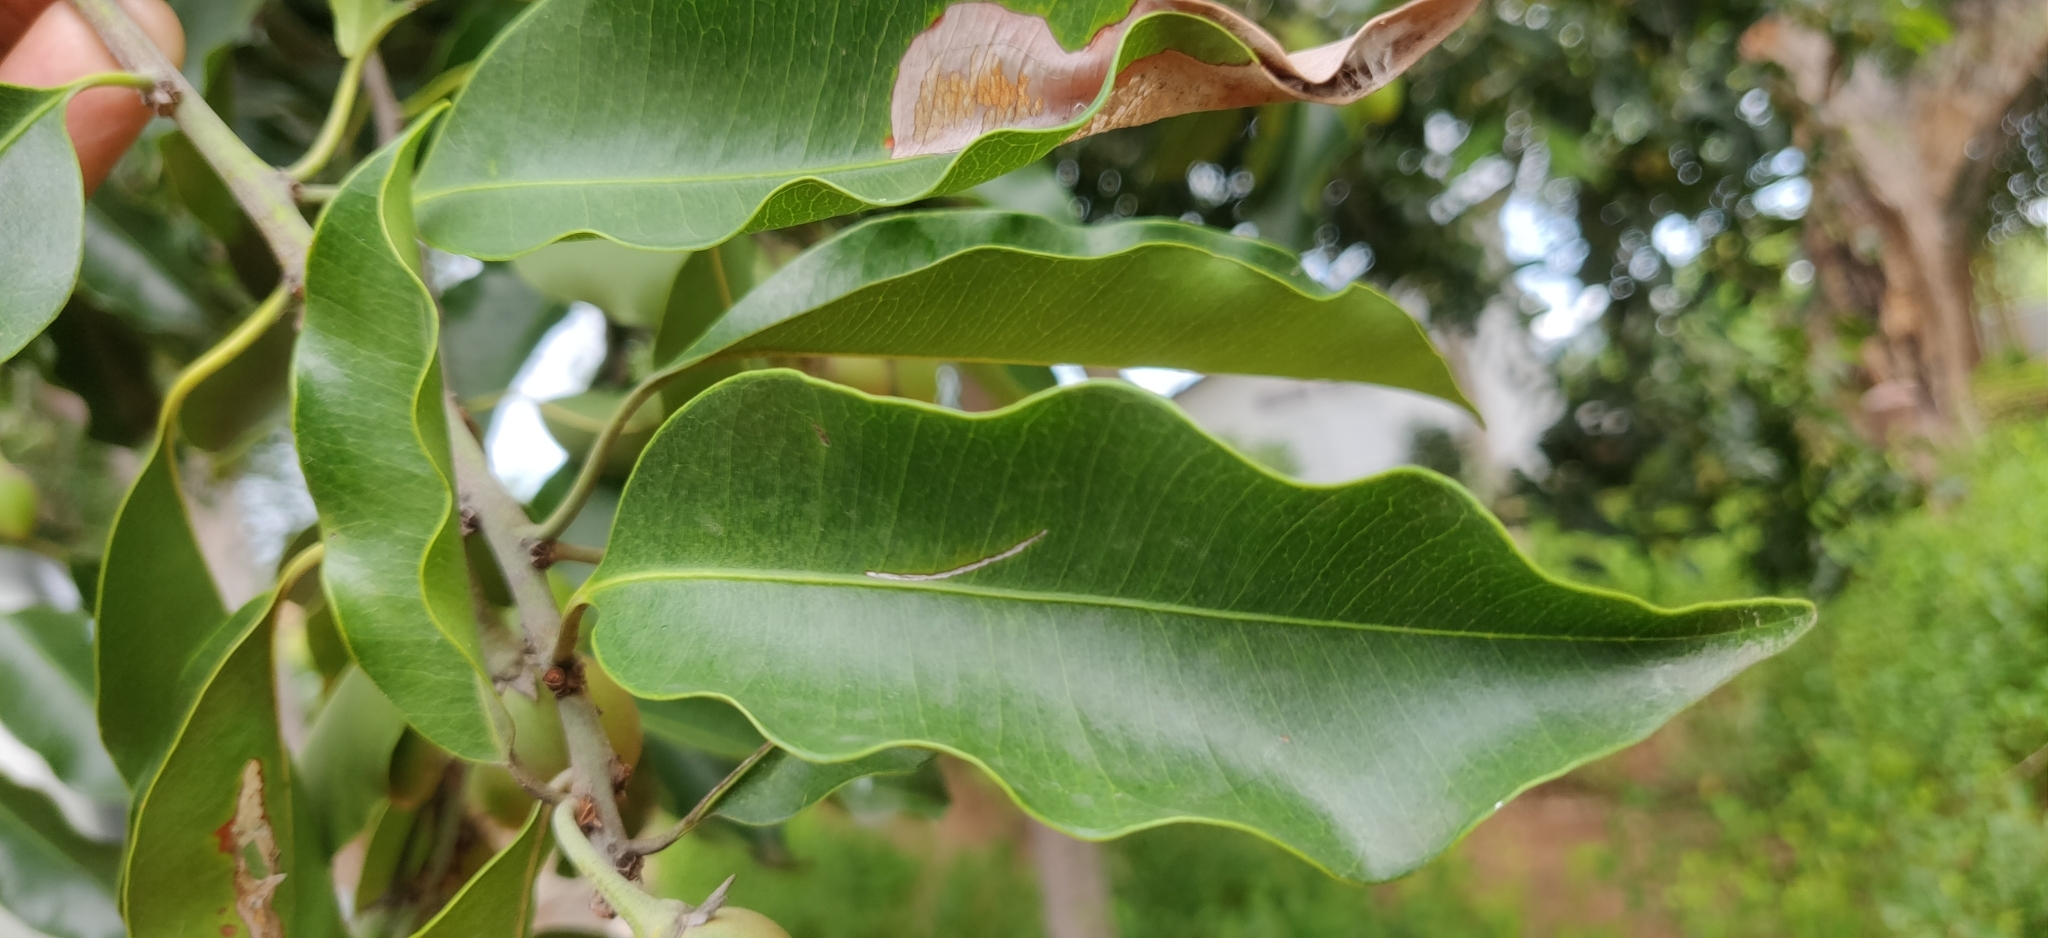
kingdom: Plantae
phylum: Tracheophyta
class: Magnoliopsida
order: Ericales
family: Sapotaceae
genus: Mimusops
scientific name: Mimusops elengi
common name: Spanish cherry
